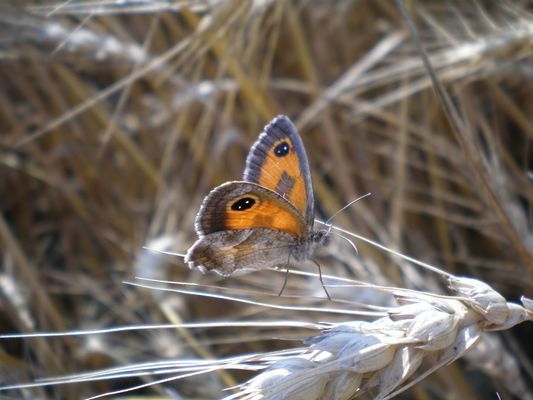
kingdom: Animalia
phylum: Arthropoda
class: Insecta
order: Lepidoptera
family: Nymphalidae
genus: Pyronia
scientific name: Pyronia cecilia
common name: Southern gatekeeper
